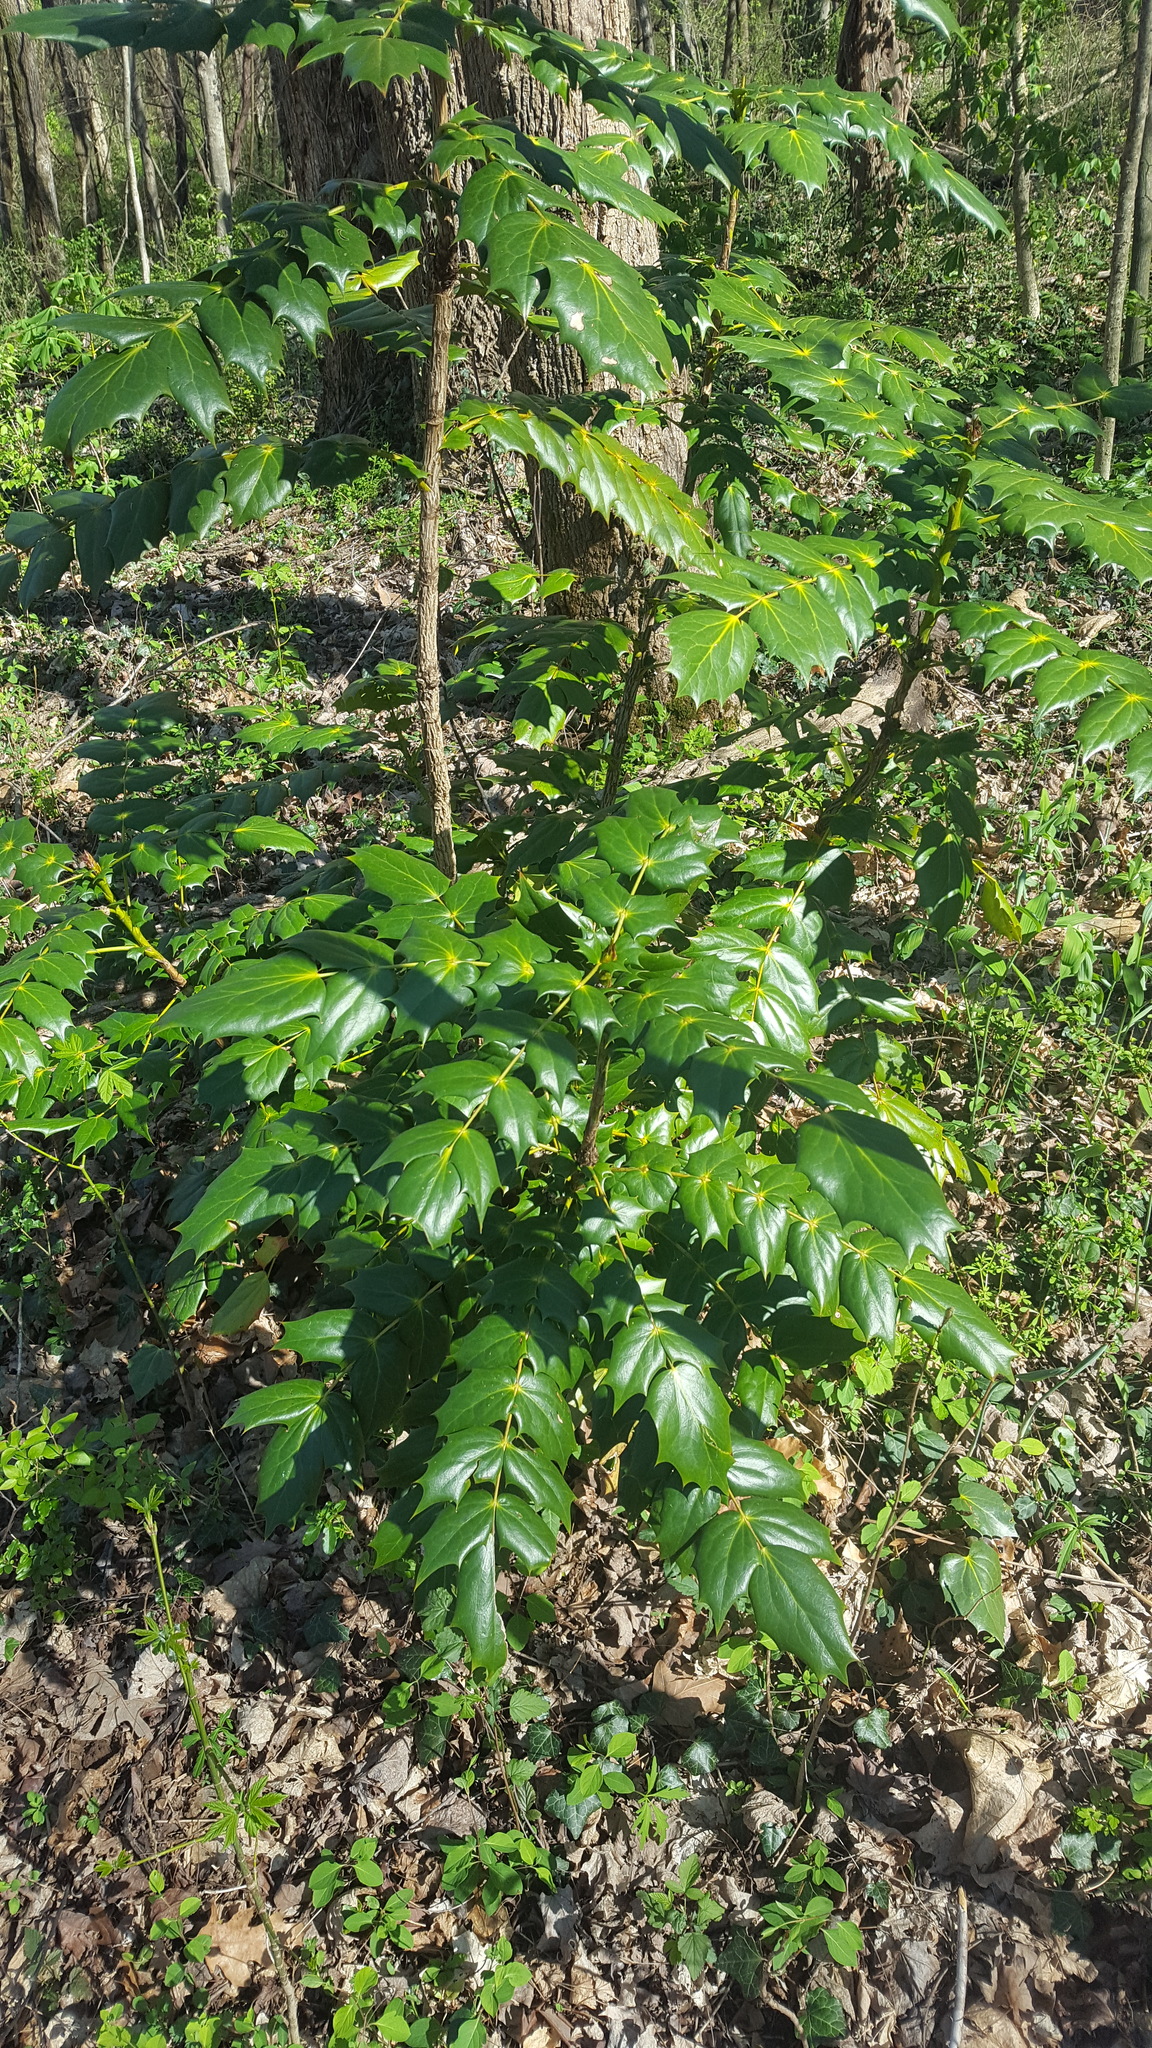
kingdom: Plantae
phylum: Tracheophyta
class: Magnoliopsida
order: Ranunculales
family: Berberidaceae
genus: Mahonia
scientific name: Mahonia bealei
